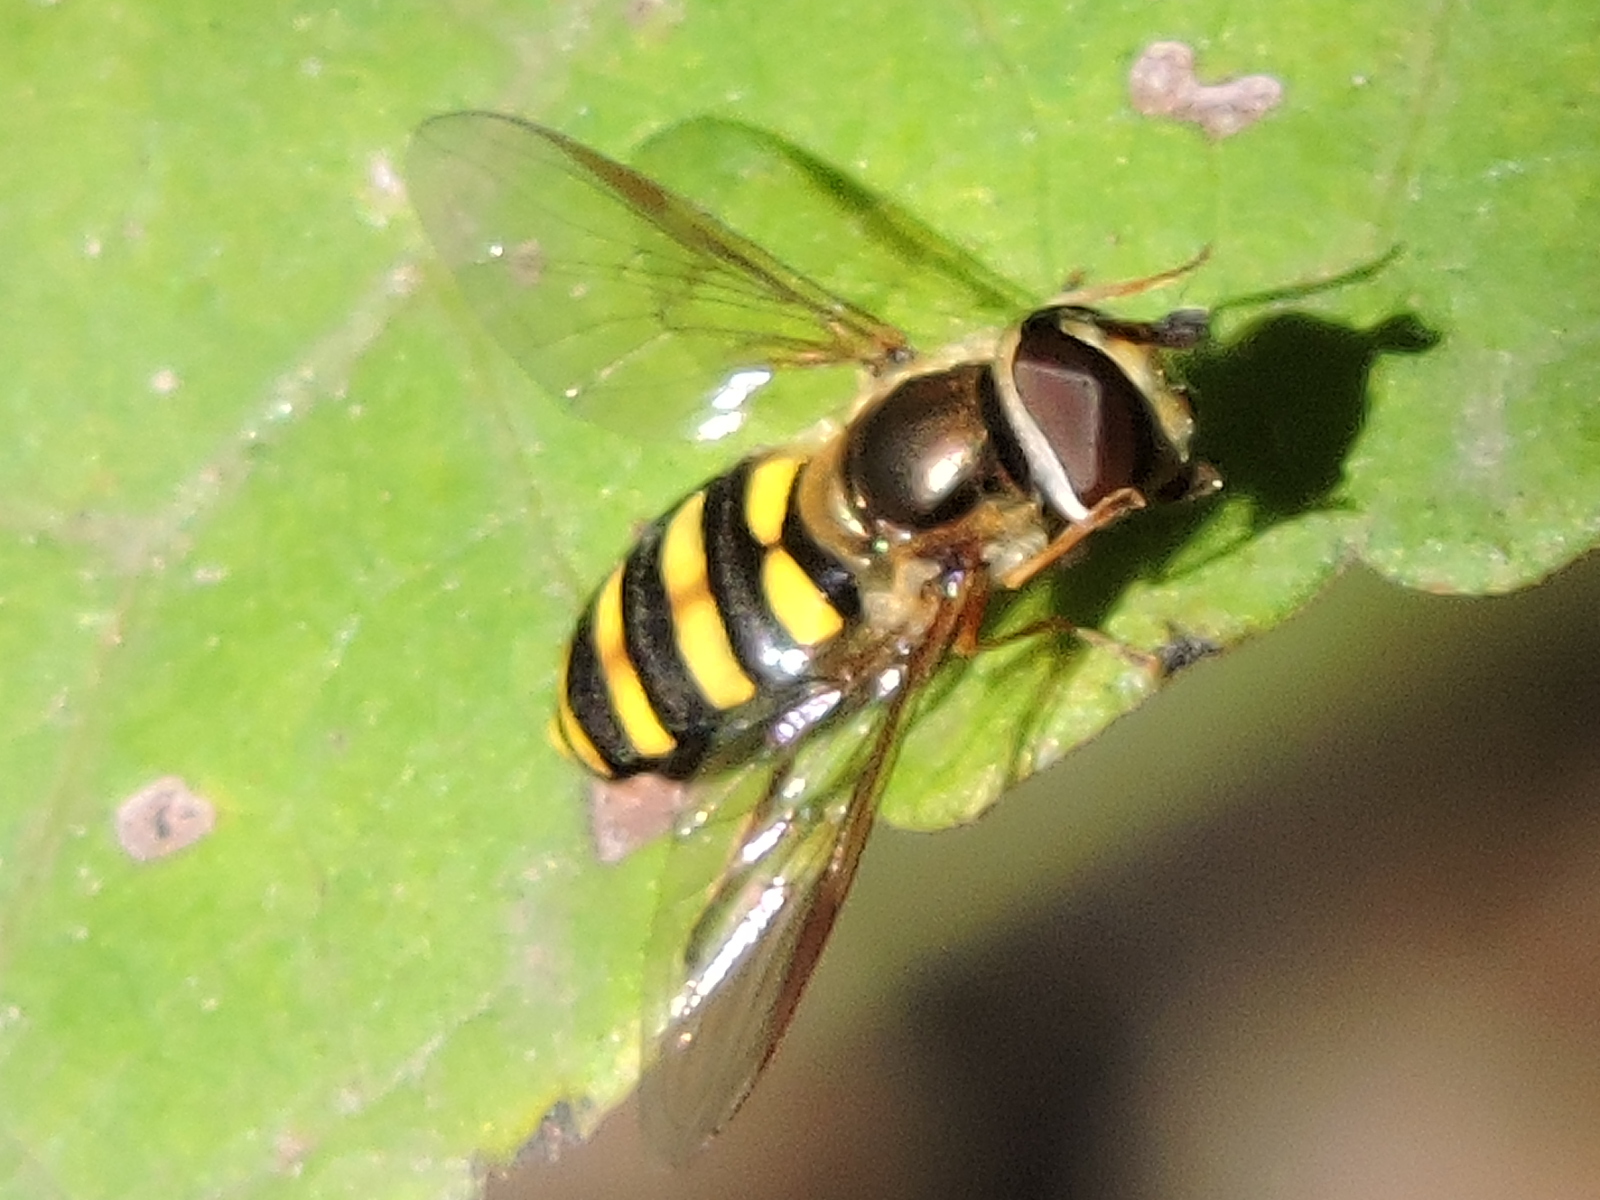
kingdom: Animalia
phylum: Arthropoda
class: Insecta
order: Diptera
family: Syrphidae
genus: Eupeodes
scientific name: Eupeodes
